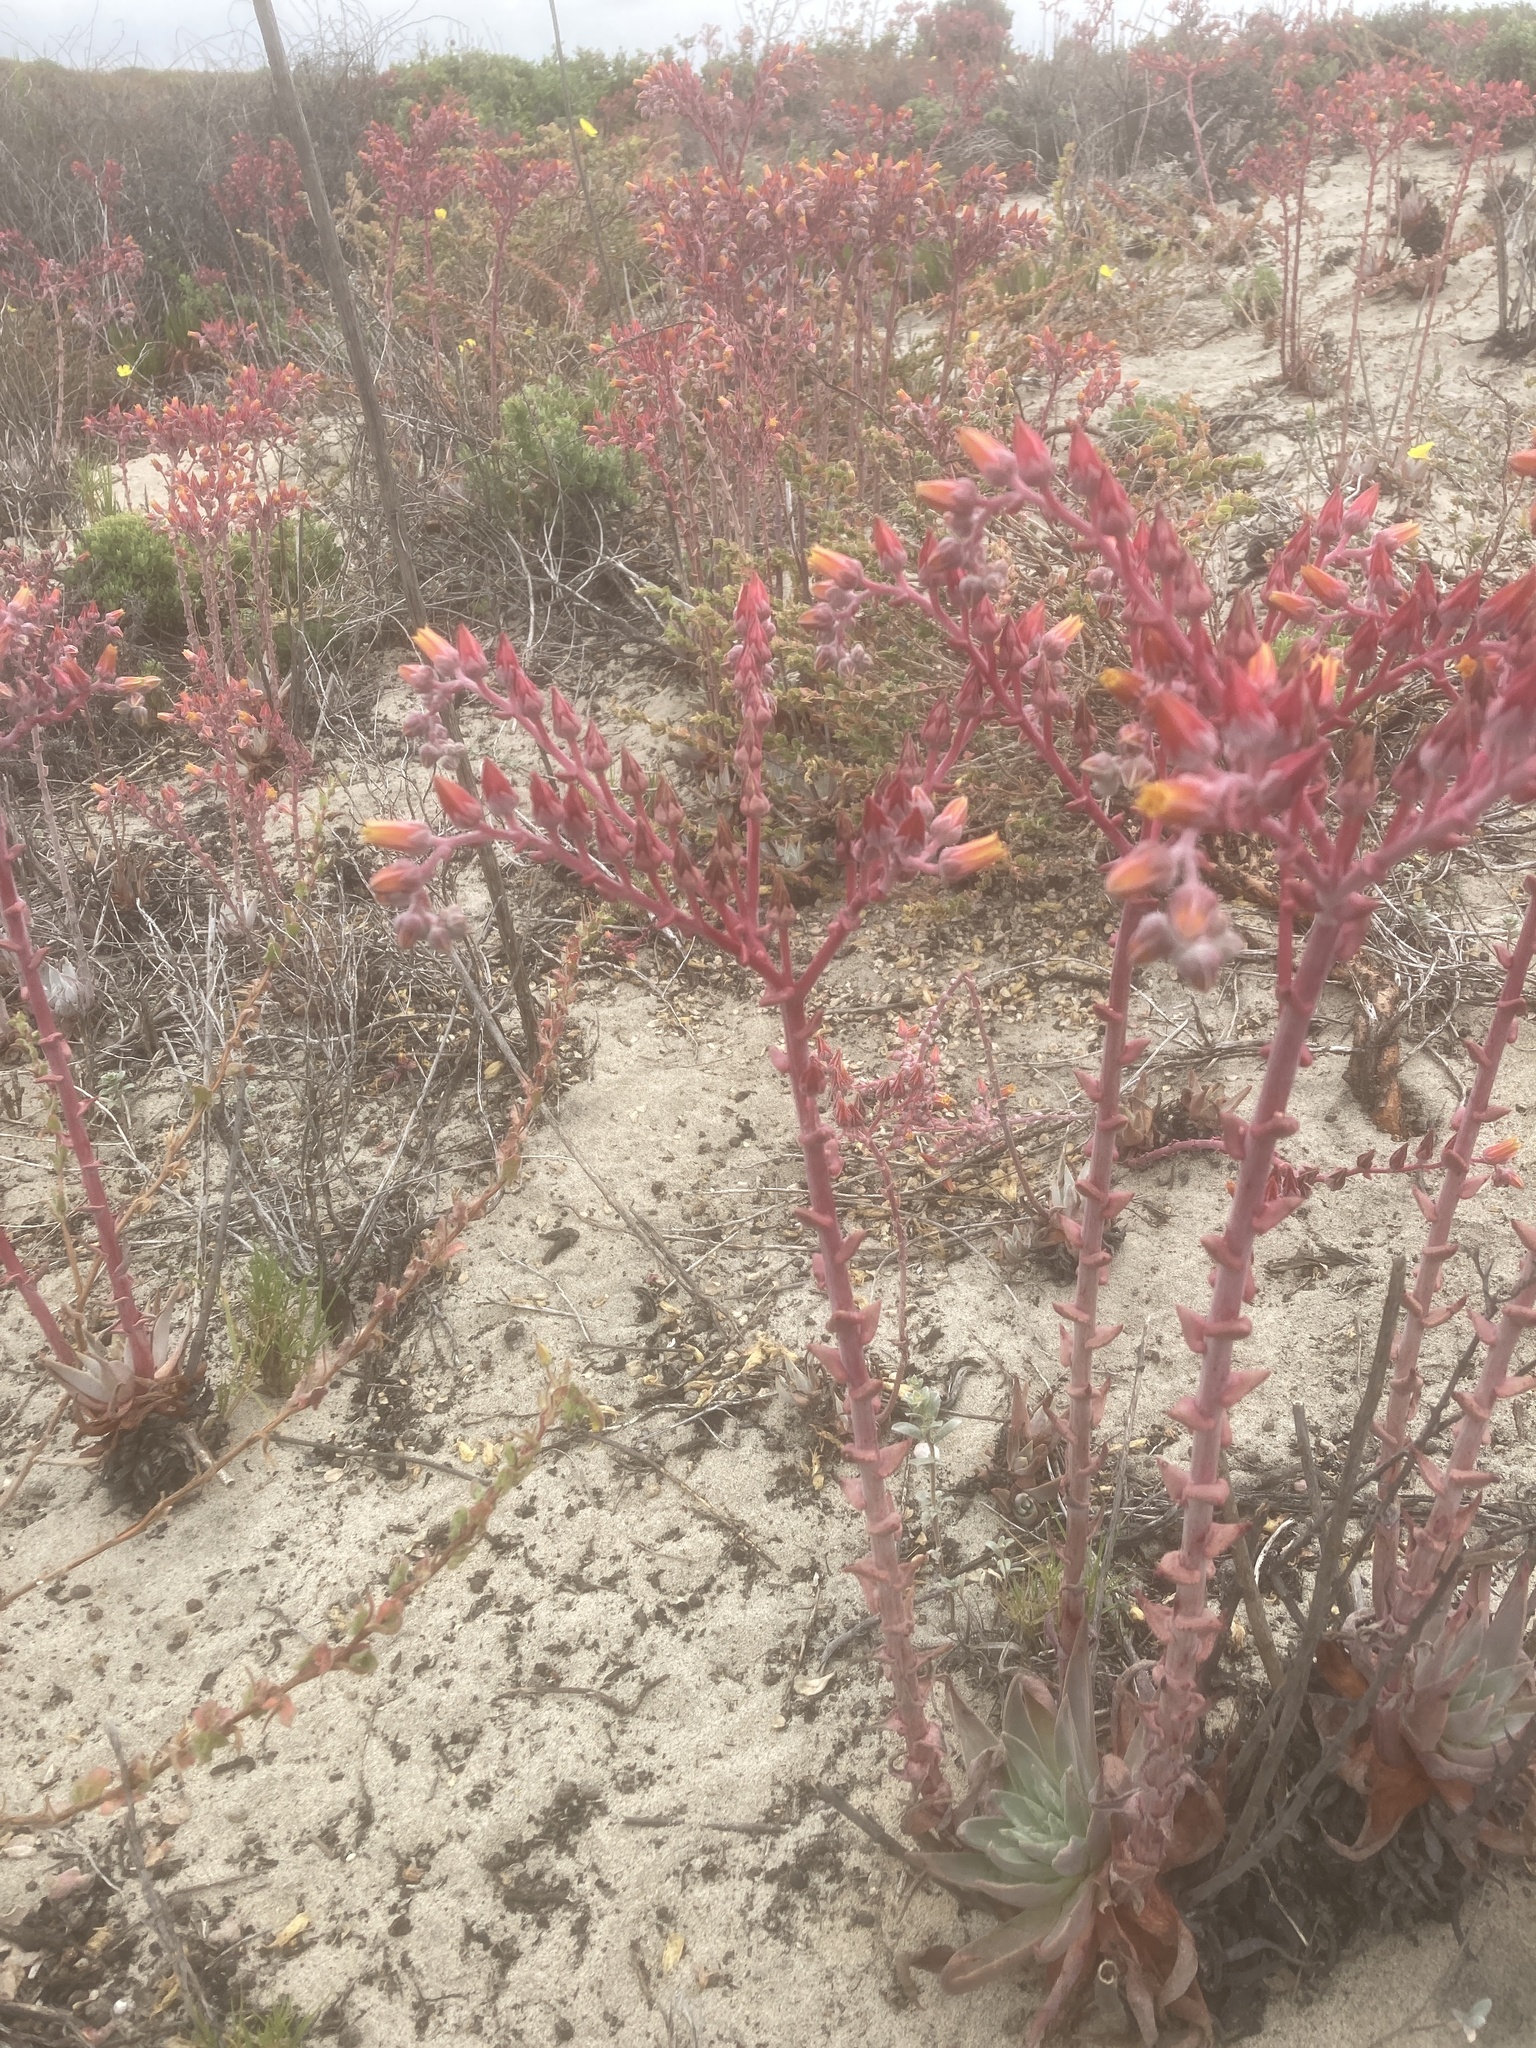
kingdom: Plantae
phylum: Tracheophyta
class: Magnoliopsida
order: Saxifragales
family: Crassulaceae
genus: Dudleya
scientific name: Dudleya lanceolata
